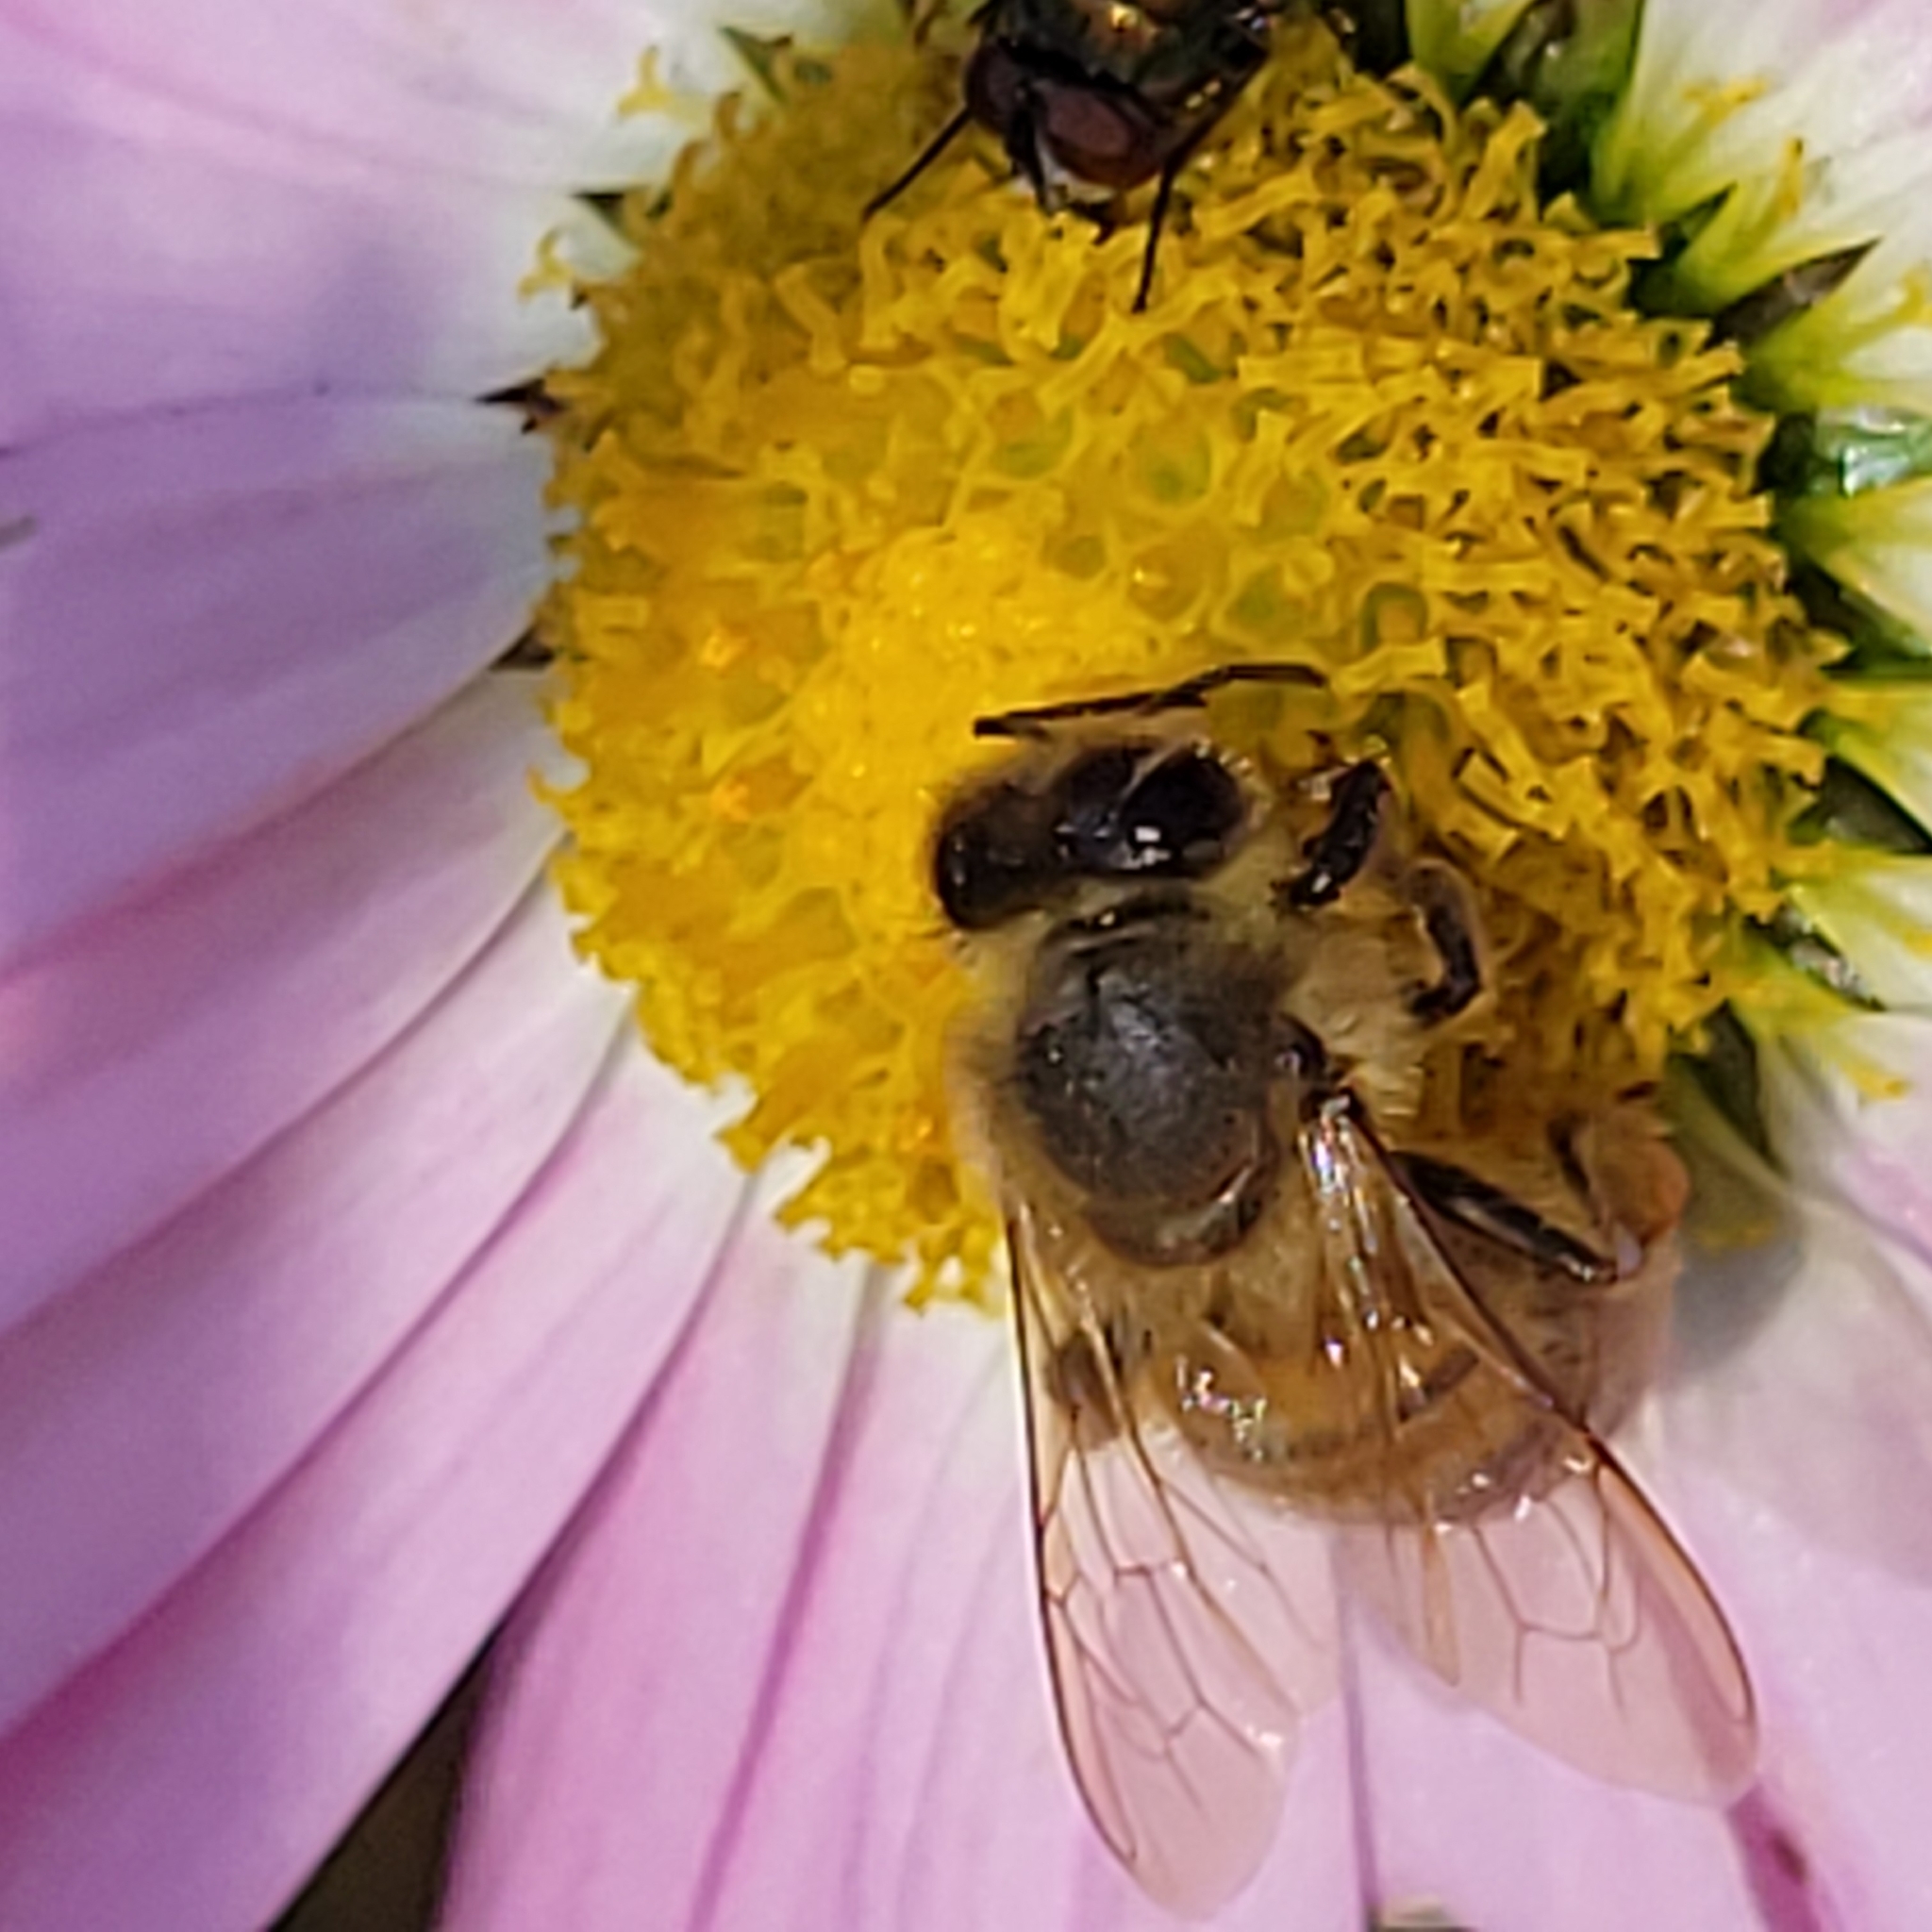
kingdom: Animalia
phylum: Arthropoda
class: Insecta
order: Hymenoptera
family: Apidae
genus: Apis
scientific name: Apis mellifera
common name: Honey bee
